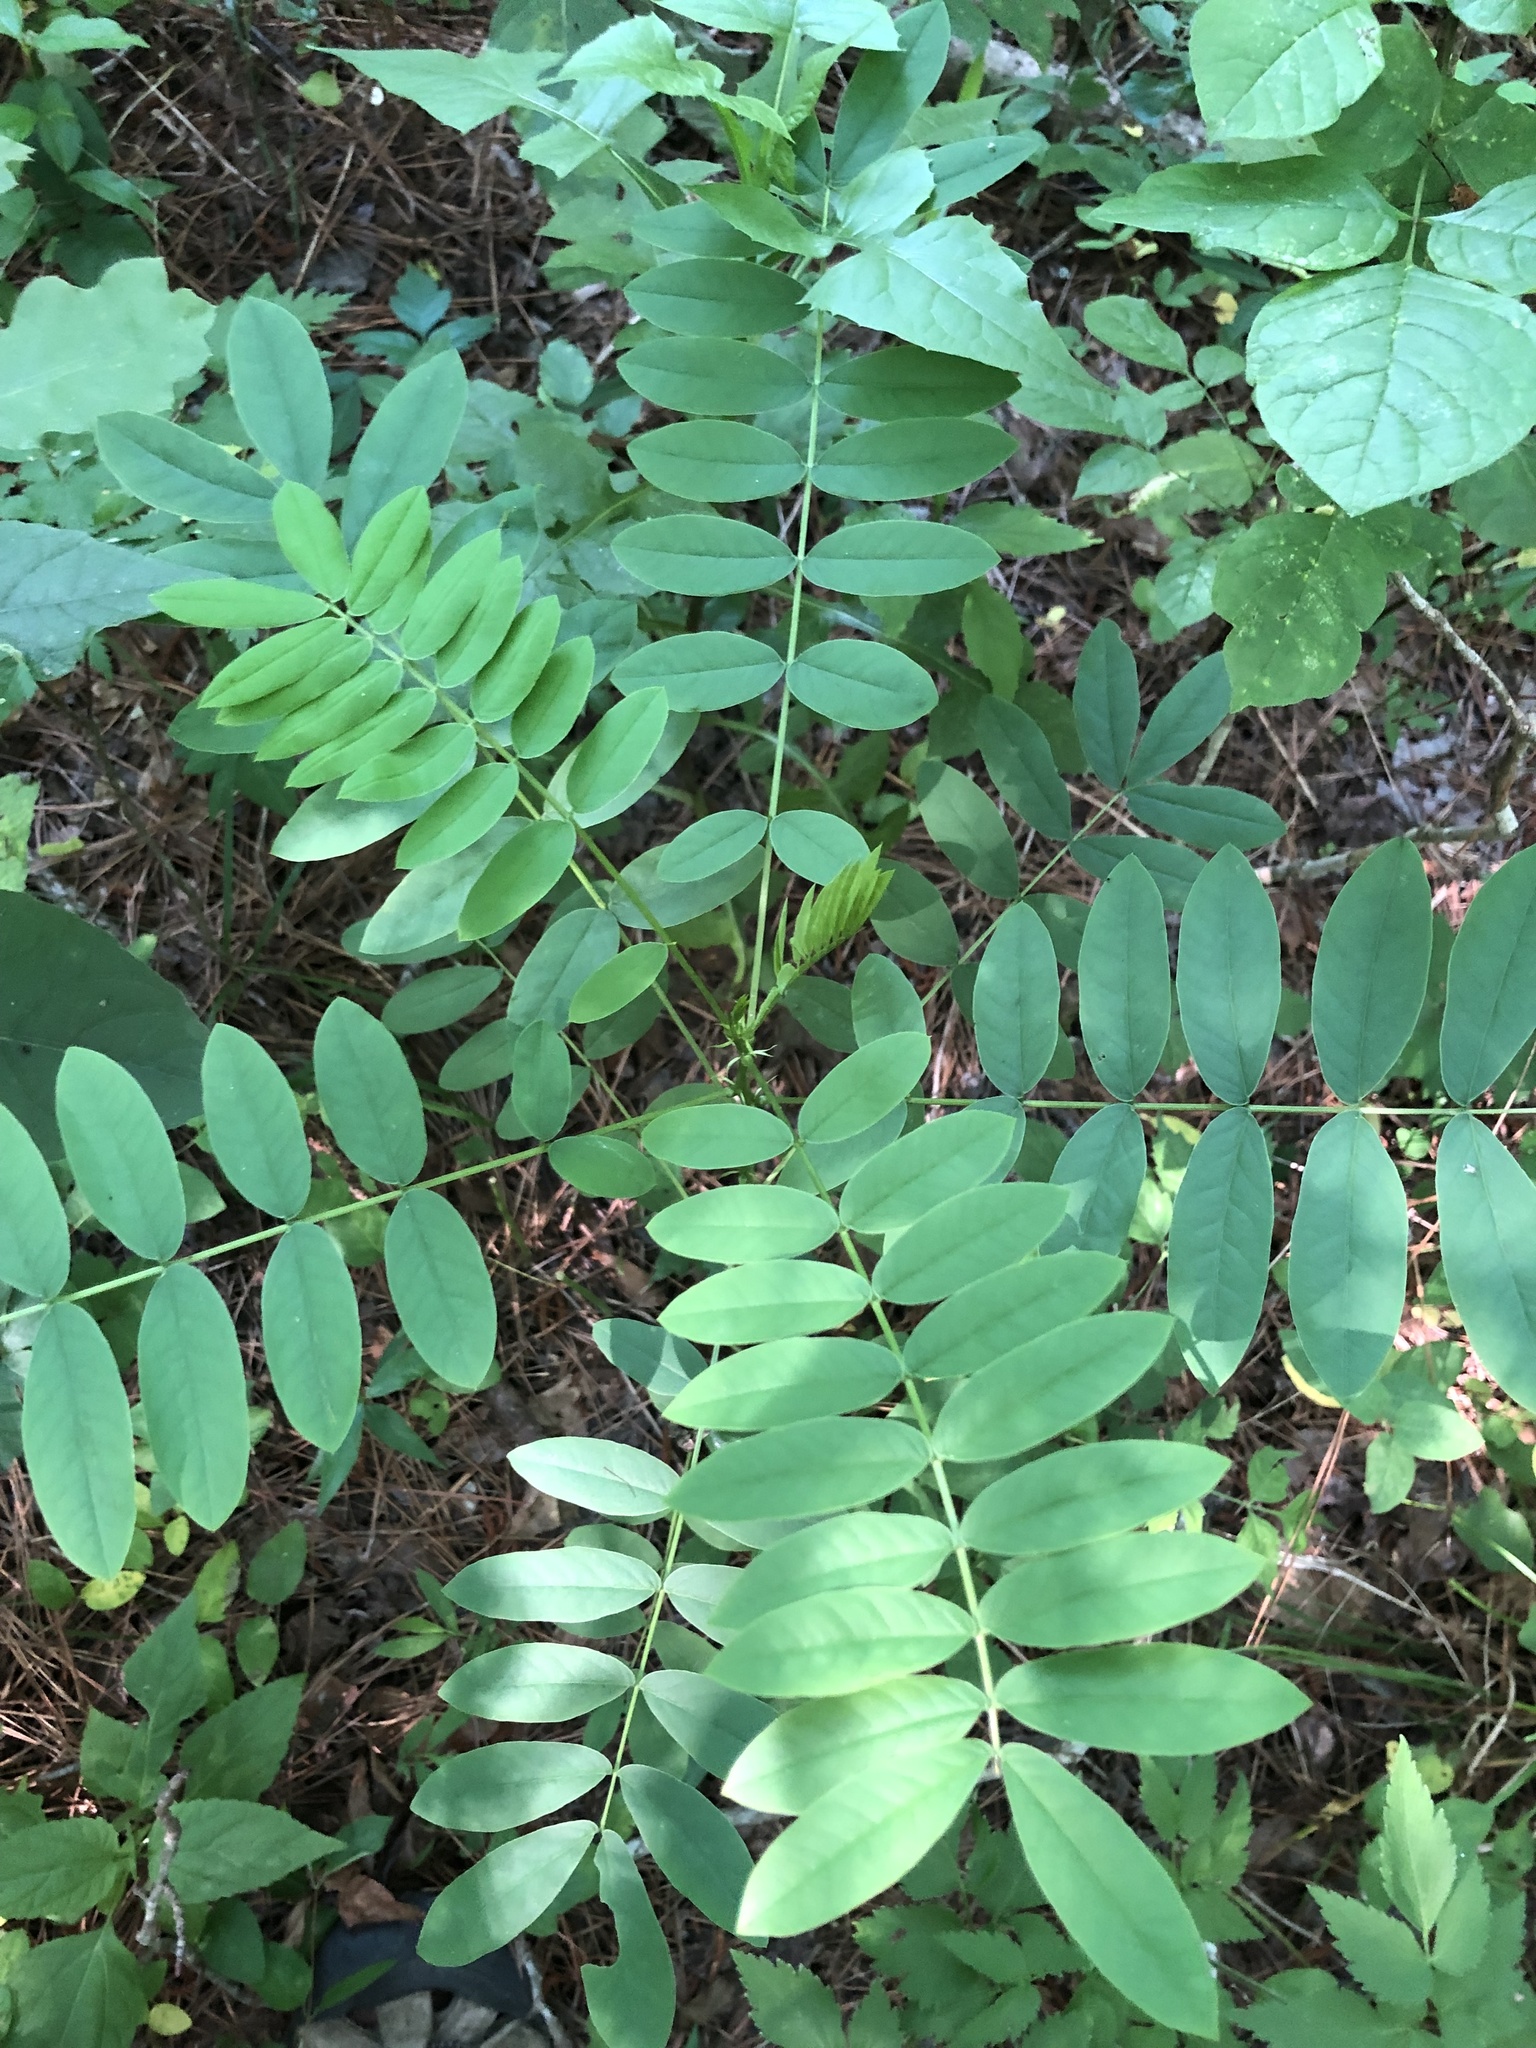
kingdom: Plantae
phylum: Tracheophyta
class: Magnoliopsida
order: Fabales
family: Fabaceae
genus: Senna
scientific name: Senna marilandica
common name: American senna
